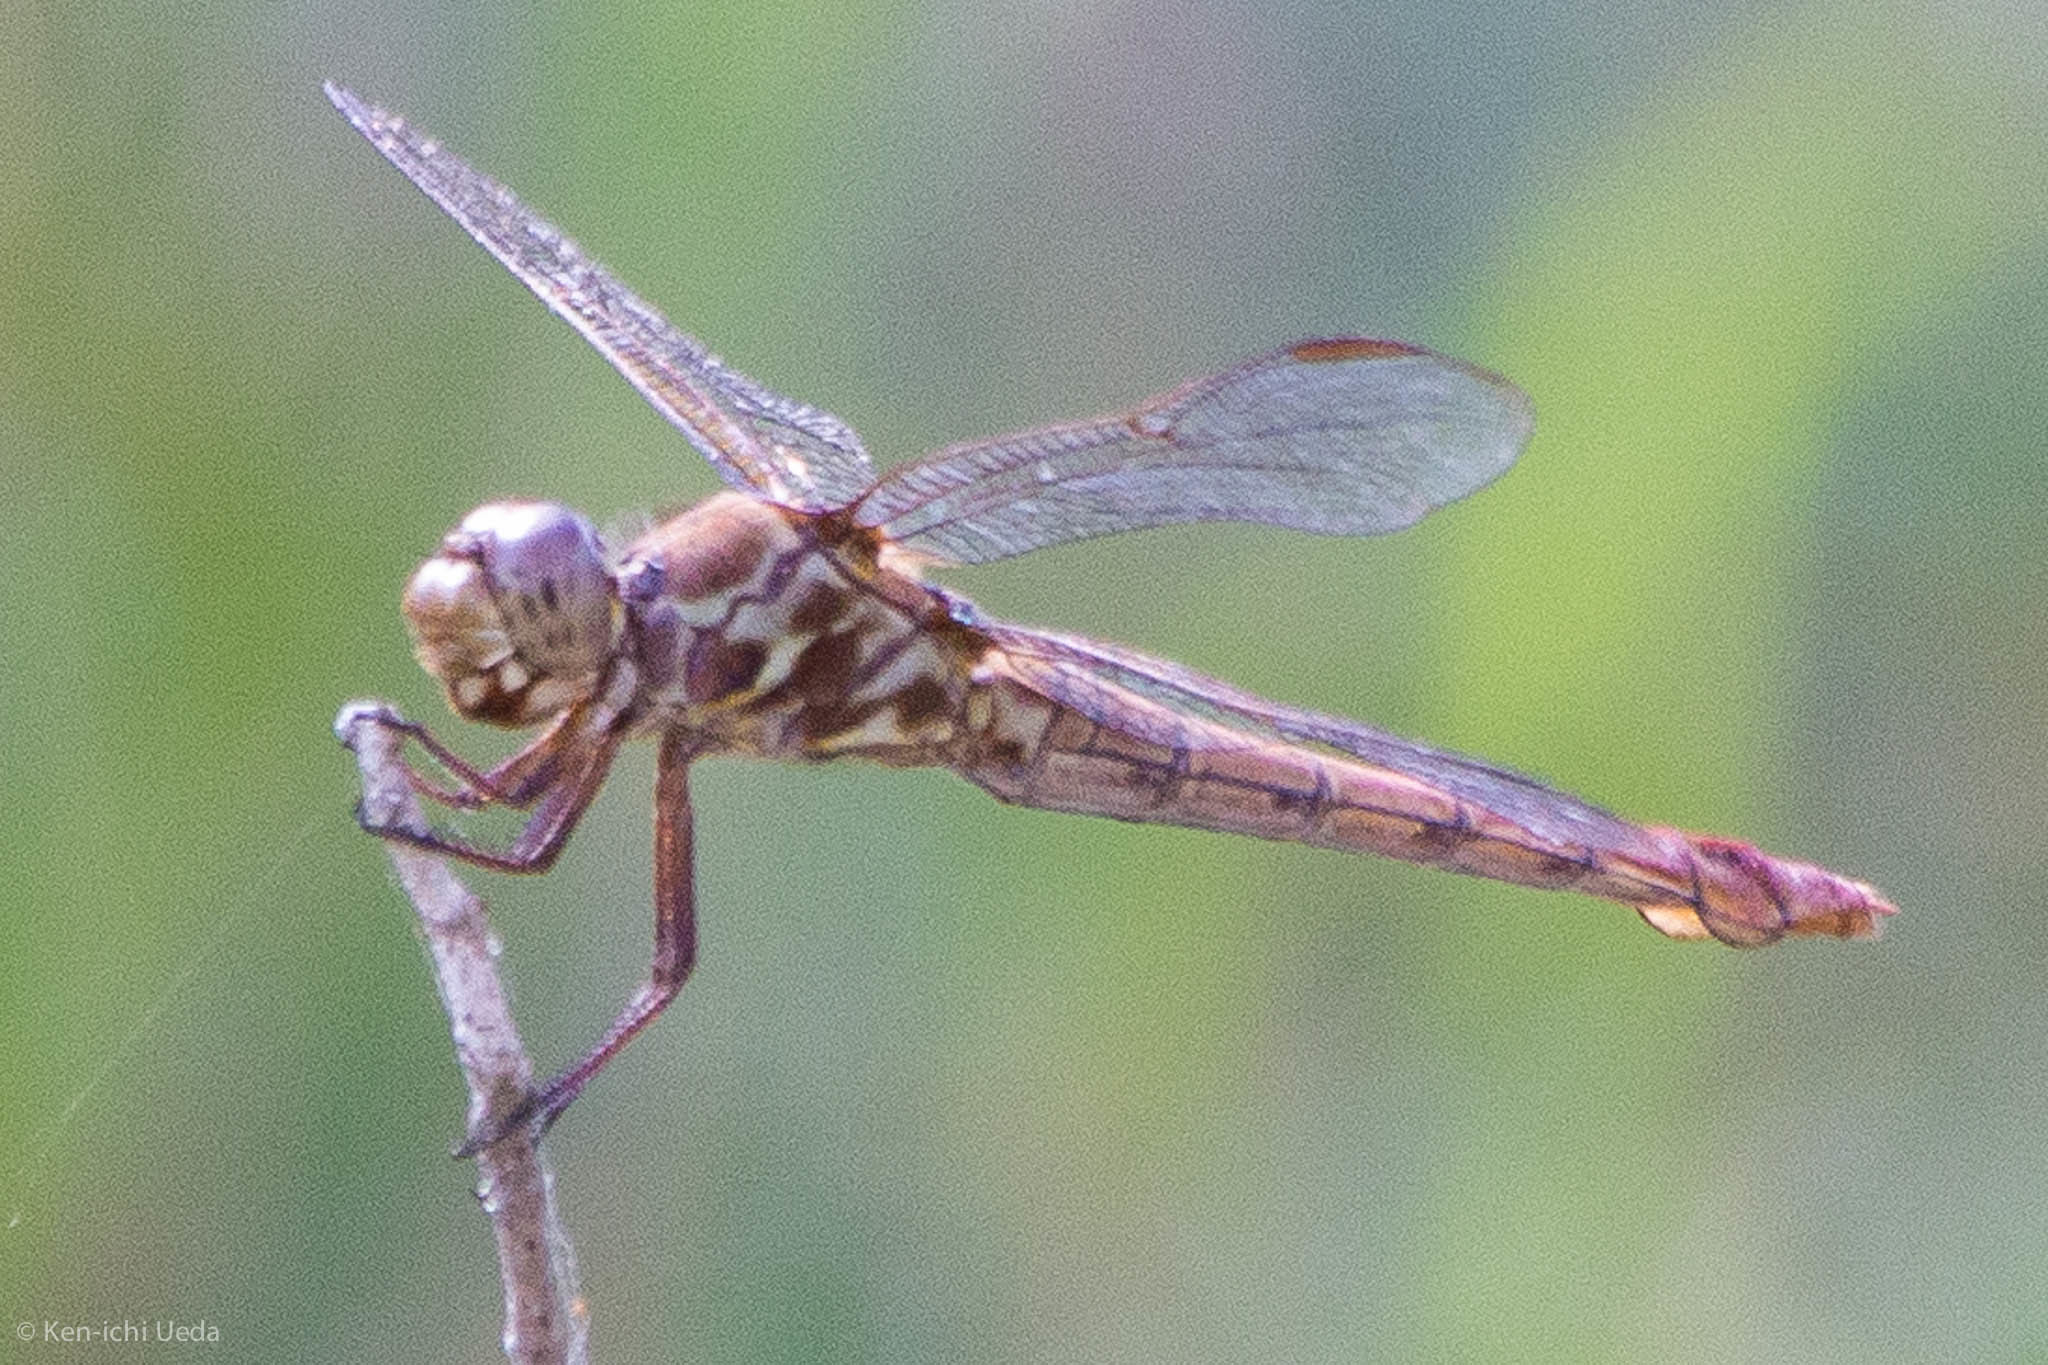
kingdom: Animalia
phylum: Arthropoda
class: Insecta
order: Odonata
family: Libellulidae
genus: Orthemis
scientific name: Orthemis ferruginea
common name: Roseate skimmer
